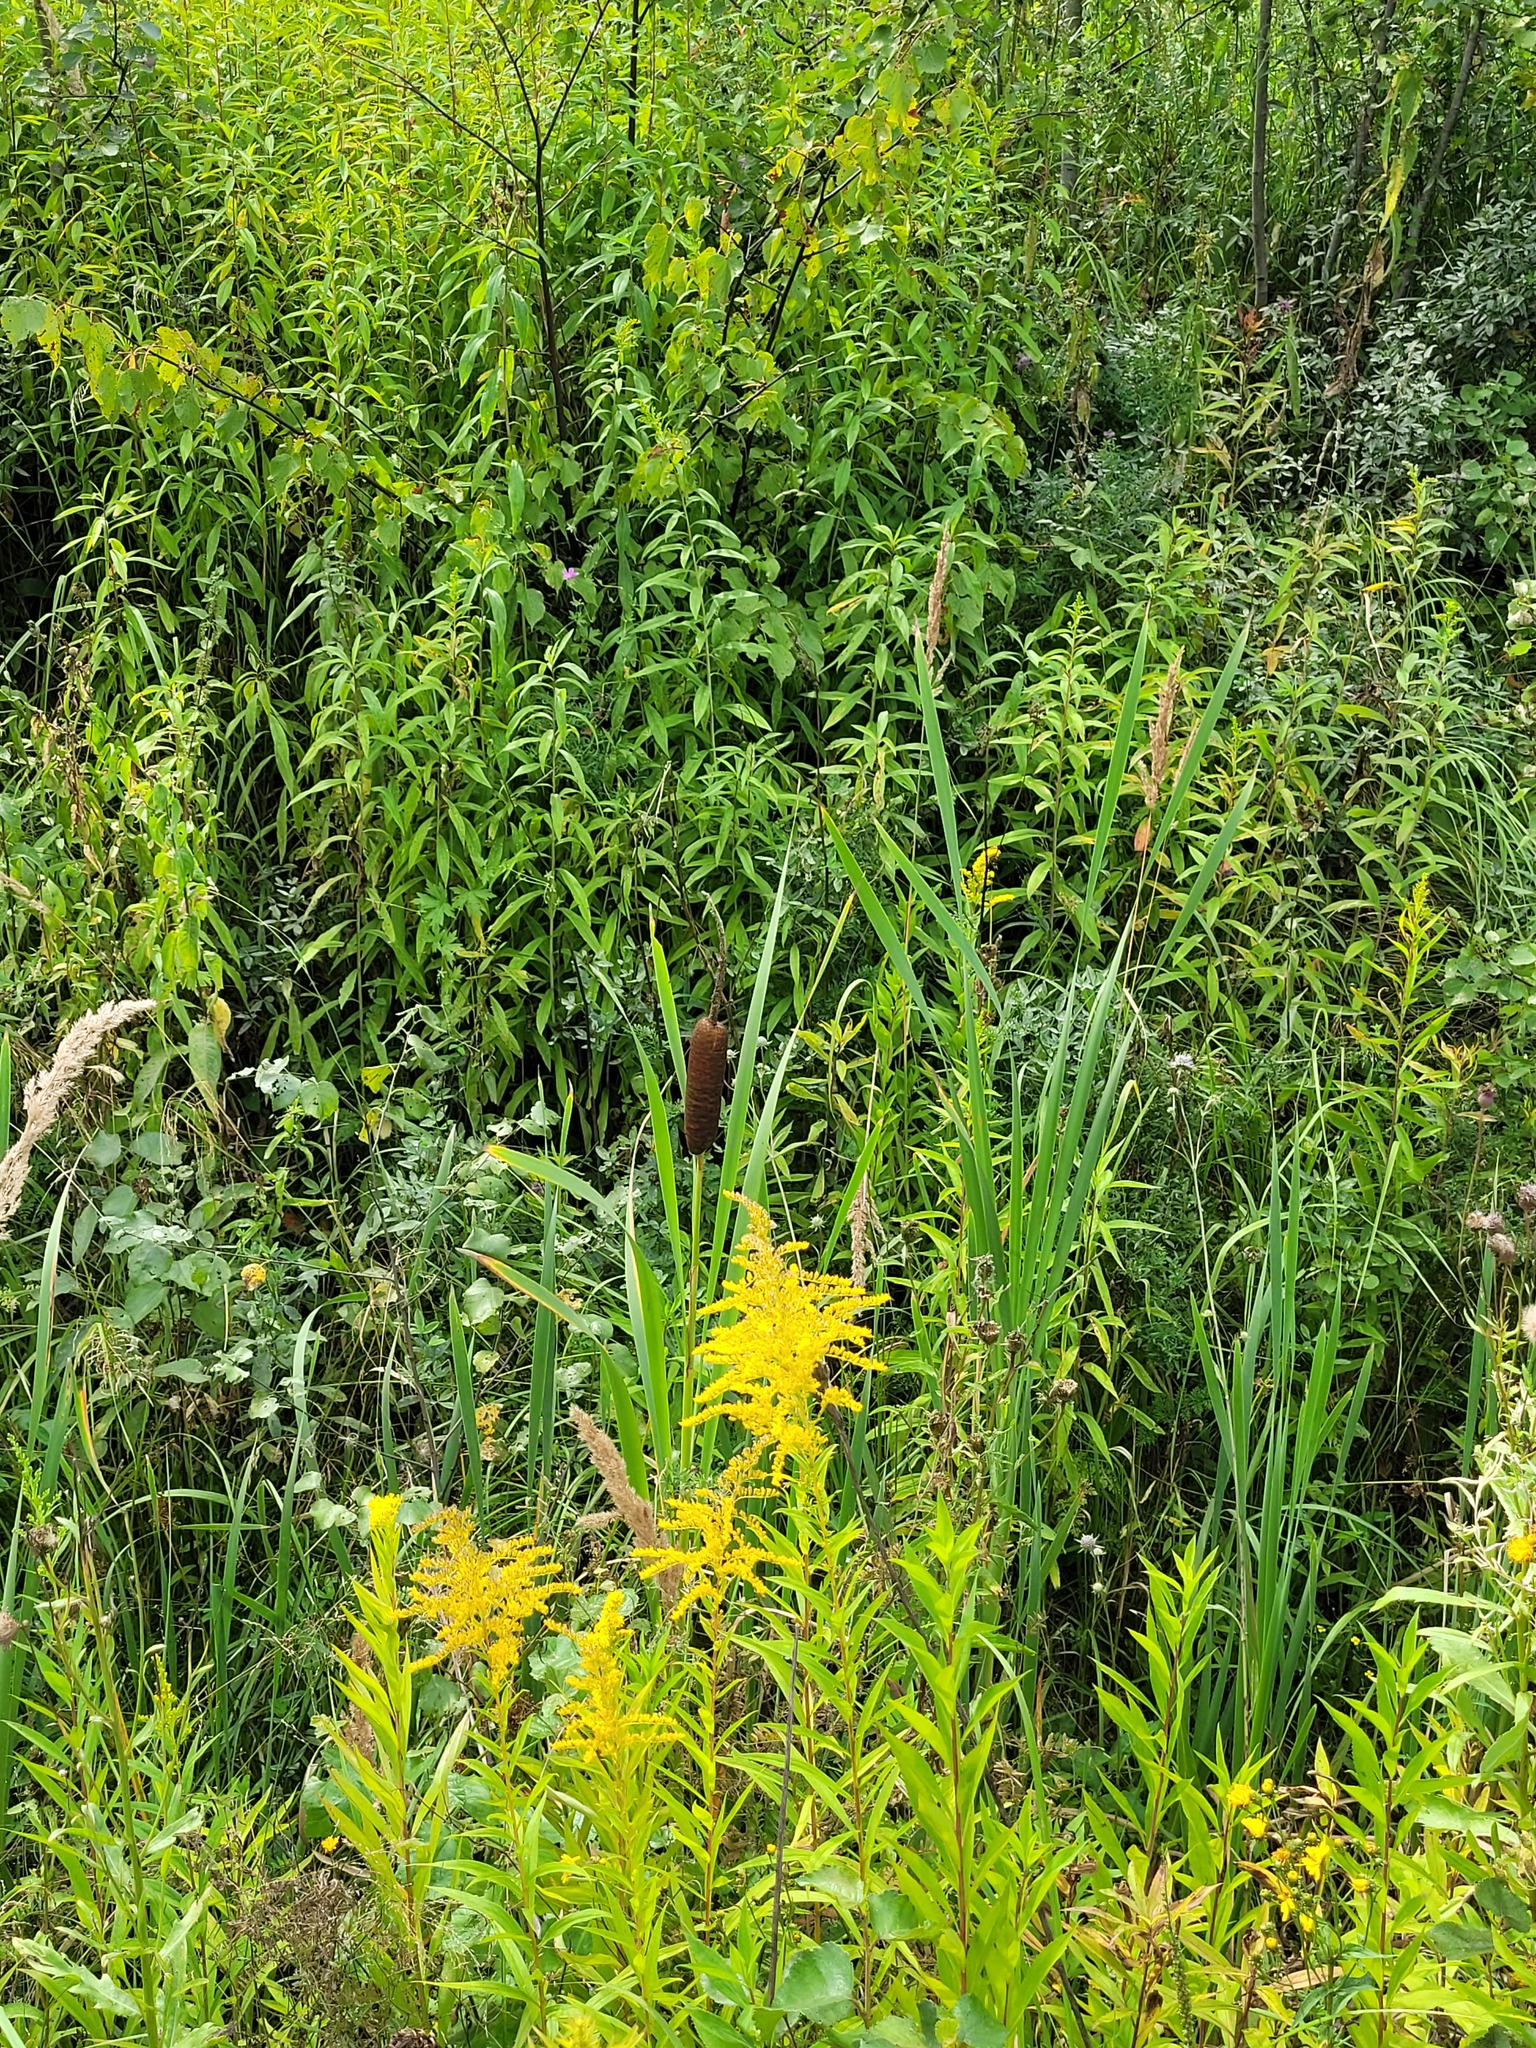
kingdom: Plantae
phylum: Tracheophyta
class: Liliopsida
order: Poales
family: Typhaceae
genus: Typha
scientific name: Typha latifolia
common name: Broadleaf cattail
